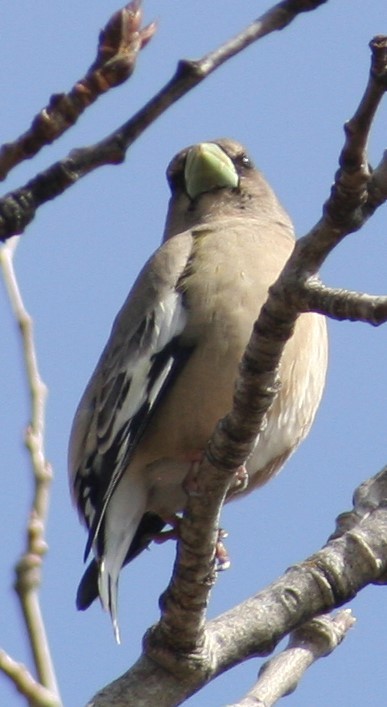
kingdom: Animalia
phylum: Chordata
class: Aves
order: Passeriformes
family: Fringillidae
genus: Hesperiphona
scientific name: Hesperiphona vespertina
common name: Evening grosbeak
